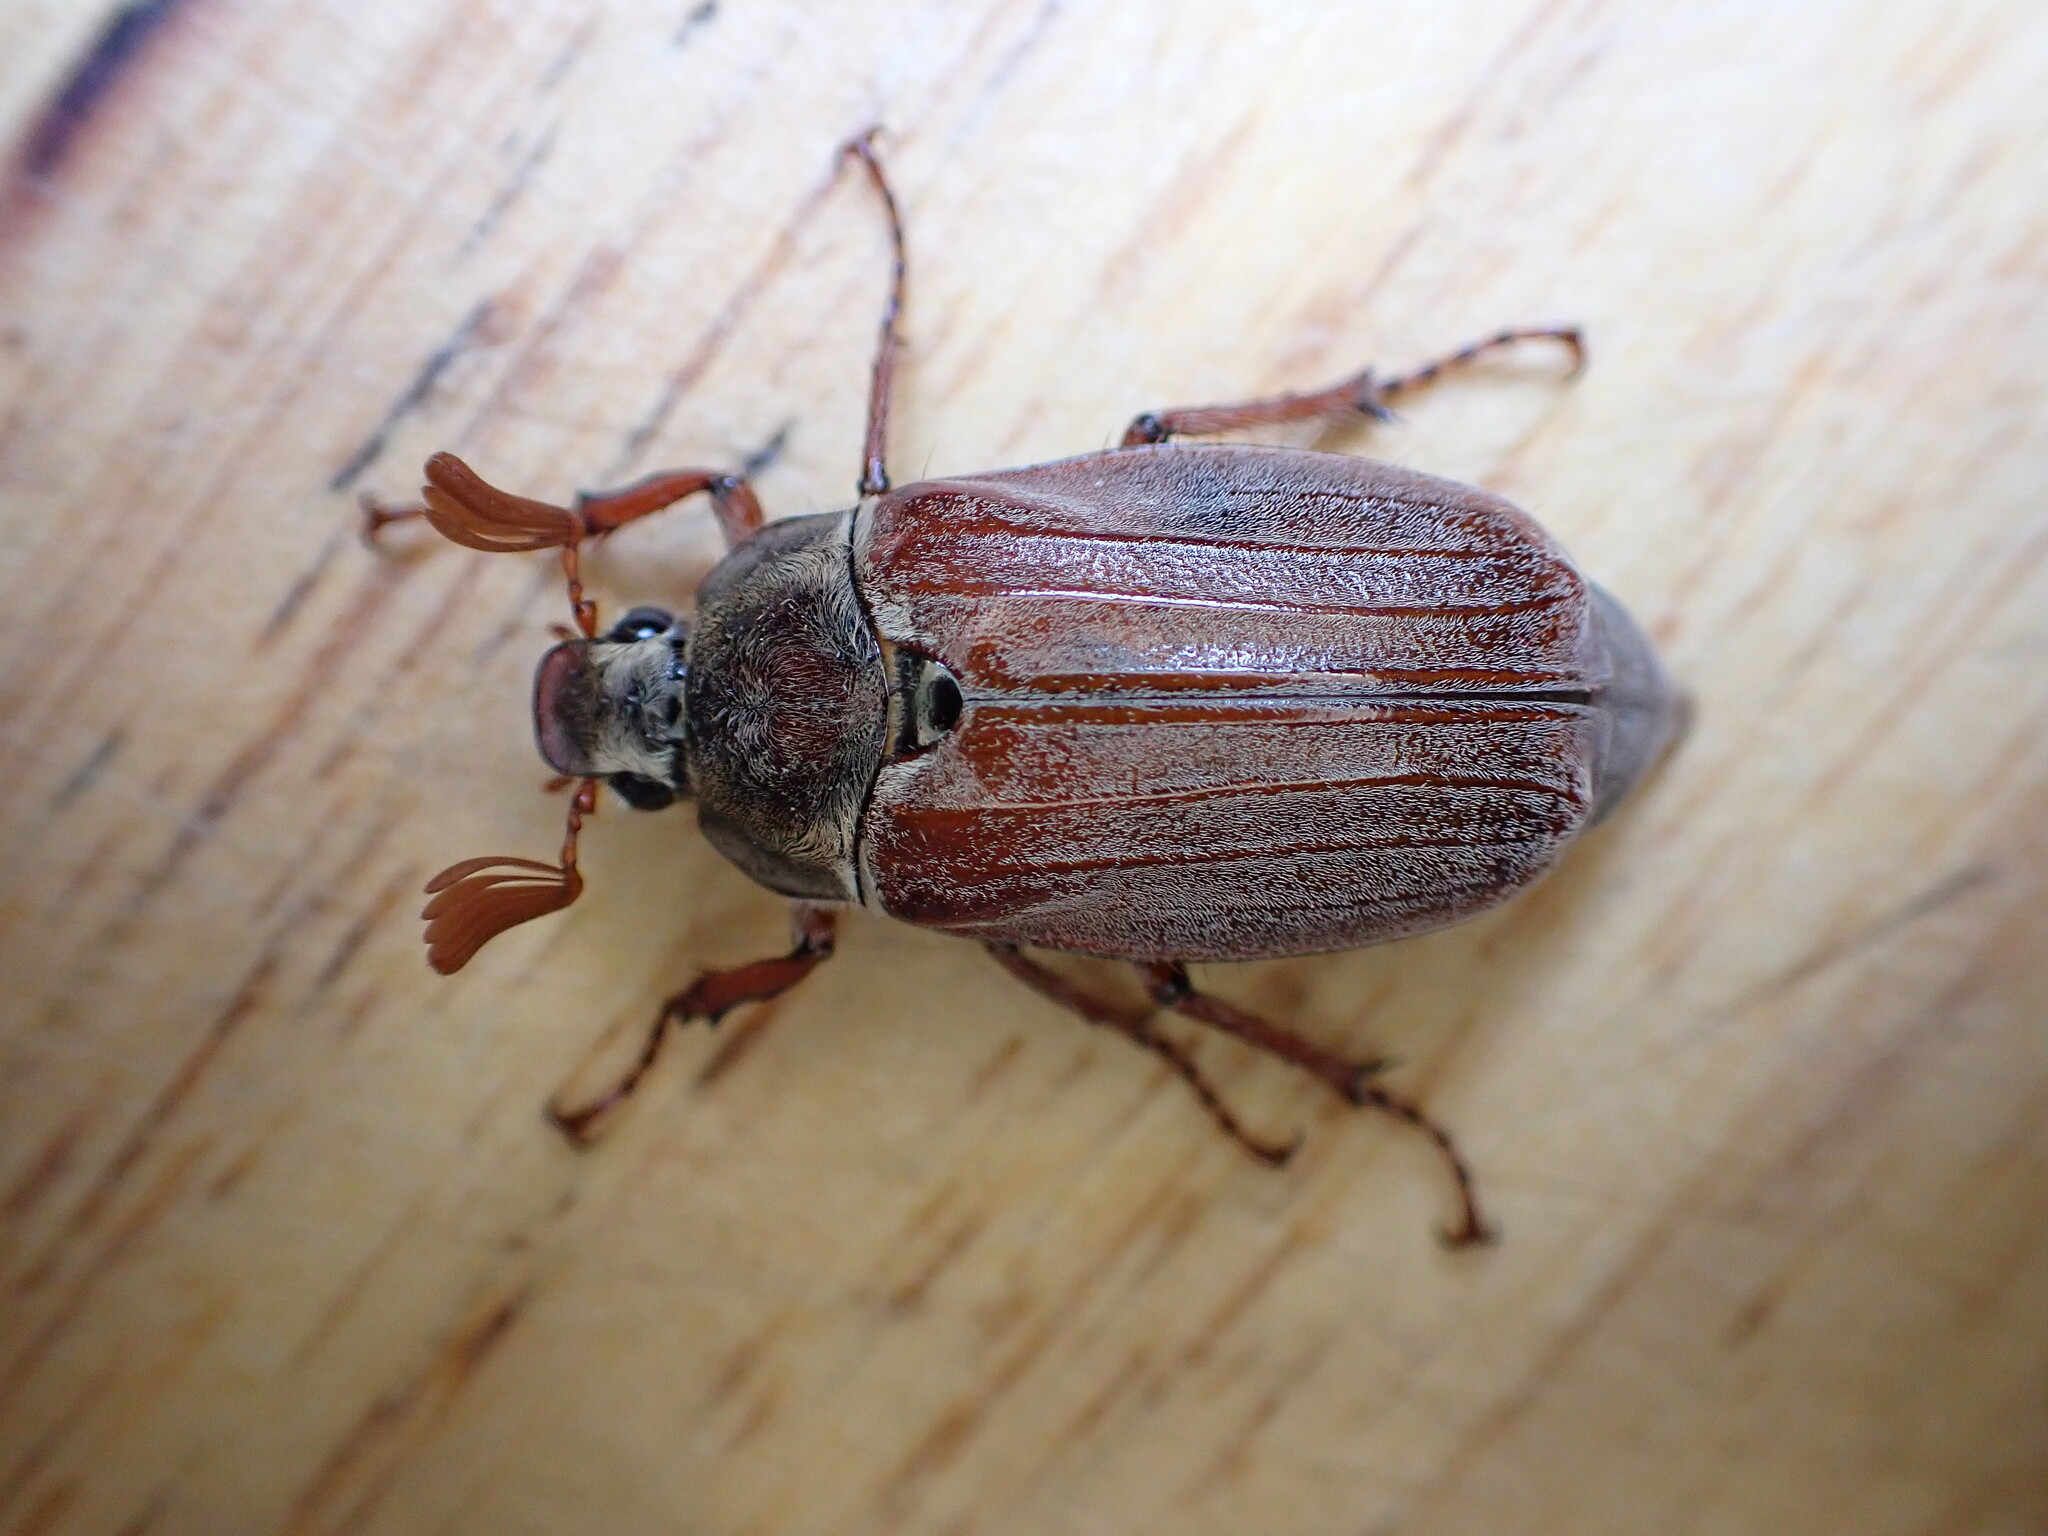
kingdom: Animalia
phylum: Arthropoda
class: Insecta
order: Coleoptera
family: Scarabaeidae
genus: Melolontha
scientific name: Melolontha melolontha
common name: Cockchafer maybeetle
